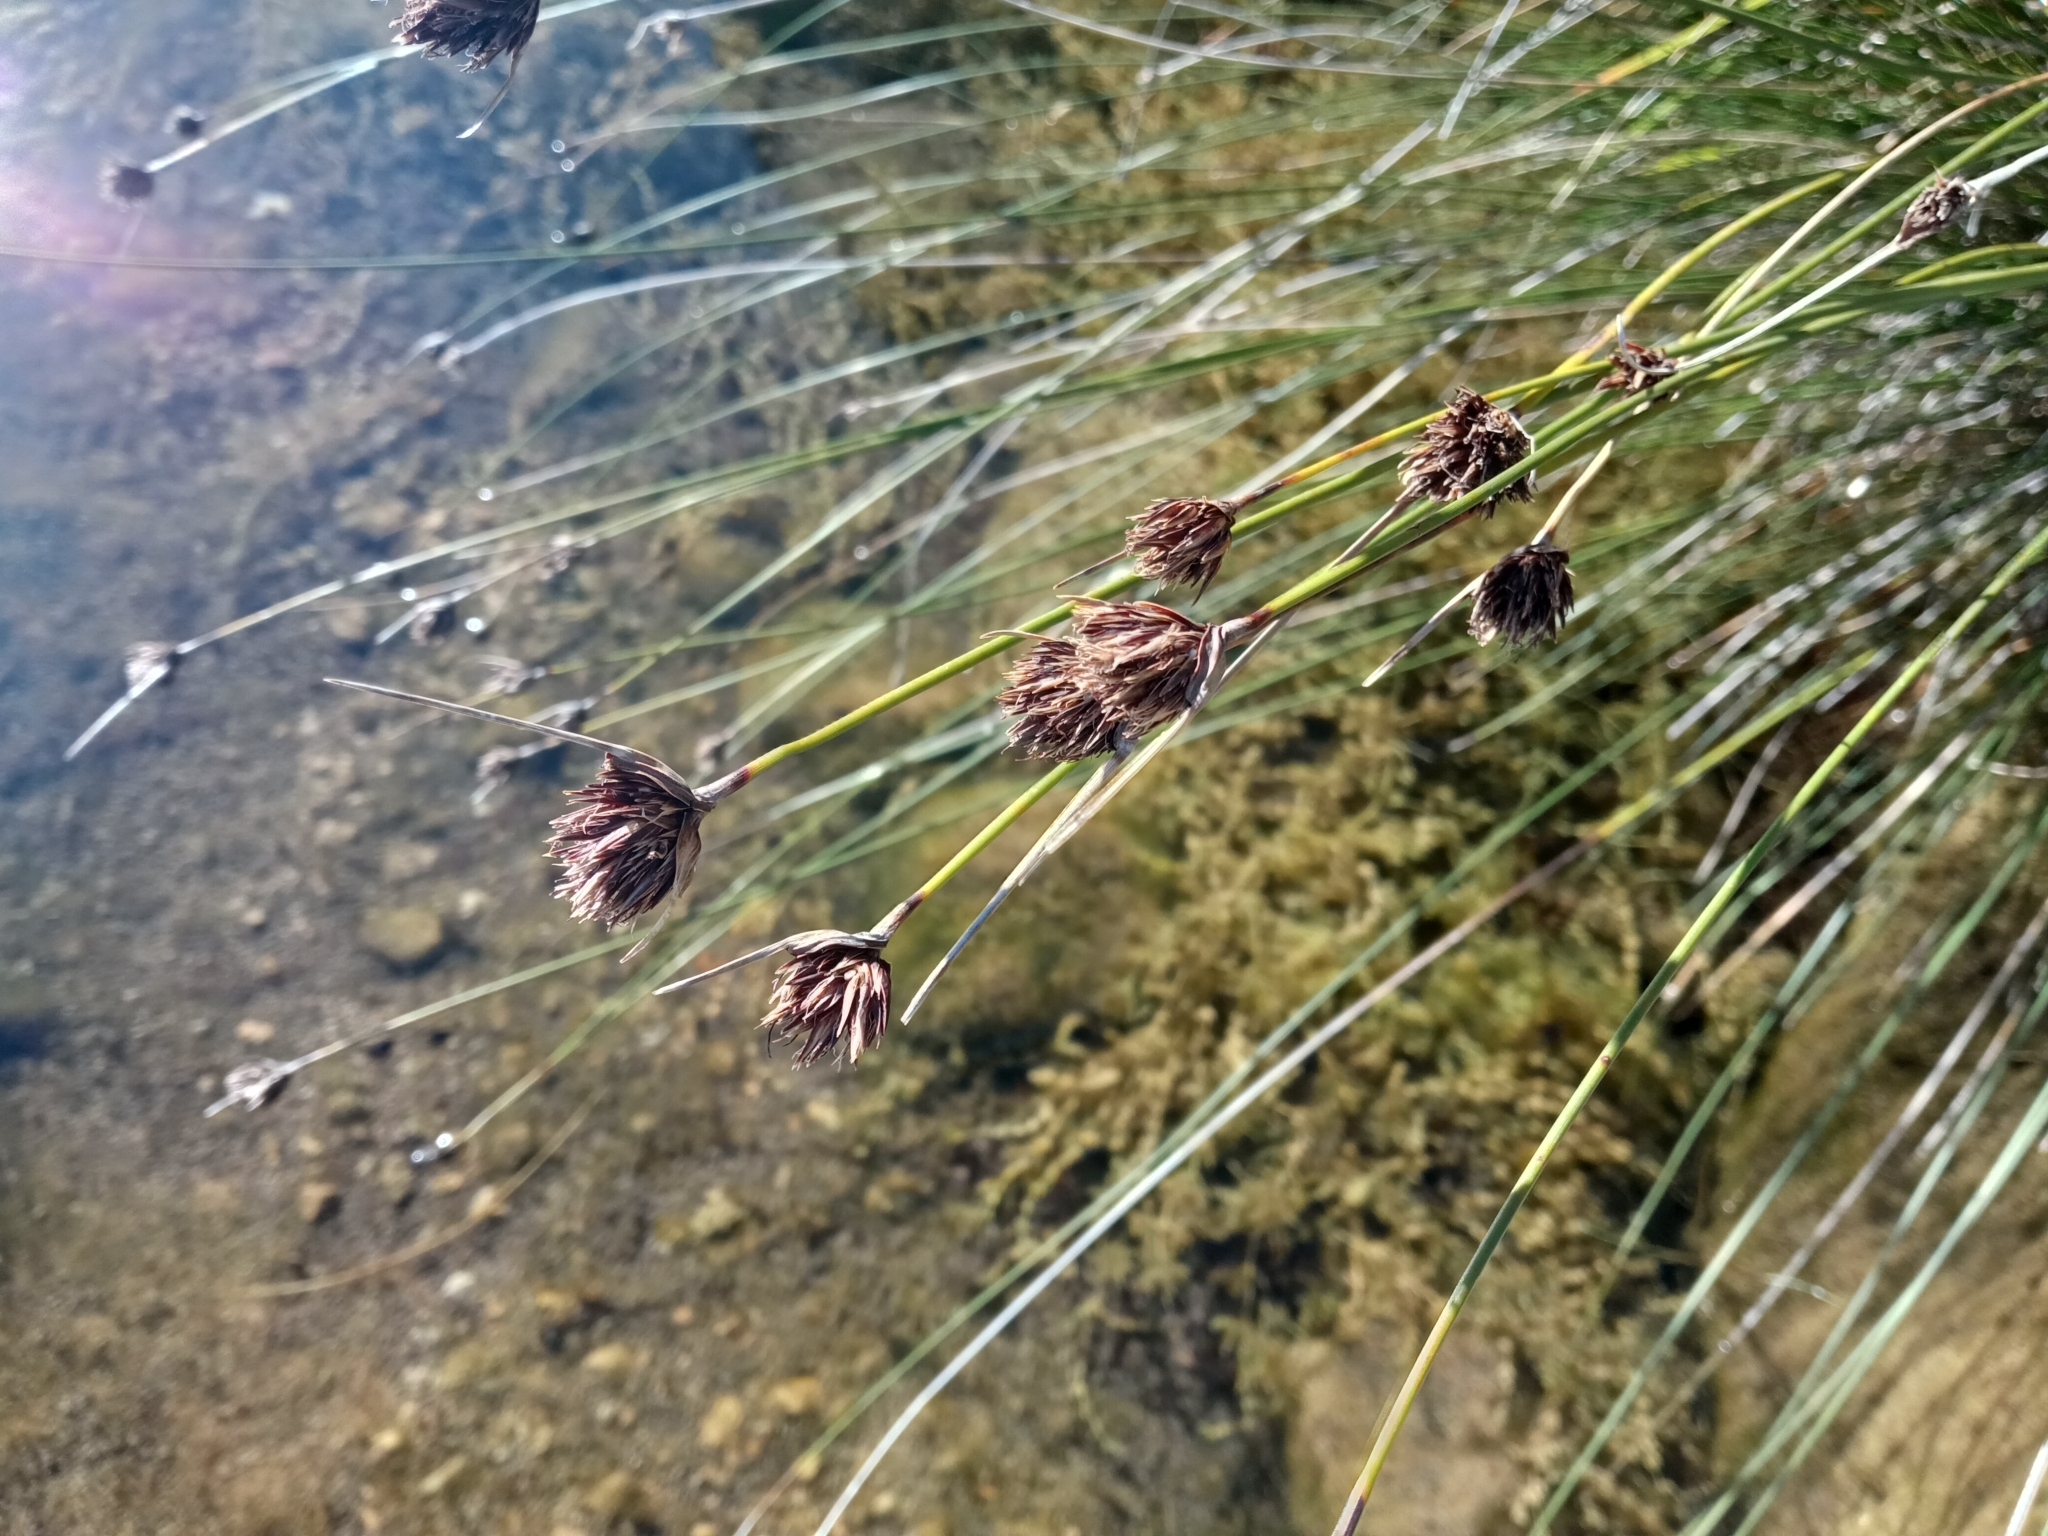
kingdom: Plantae
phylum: Tracheophyta
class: Liliopsida
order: Poales
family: Cyperaceae
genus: Schoenus
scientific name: Schoenus nigricans
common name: Black bog-rush
